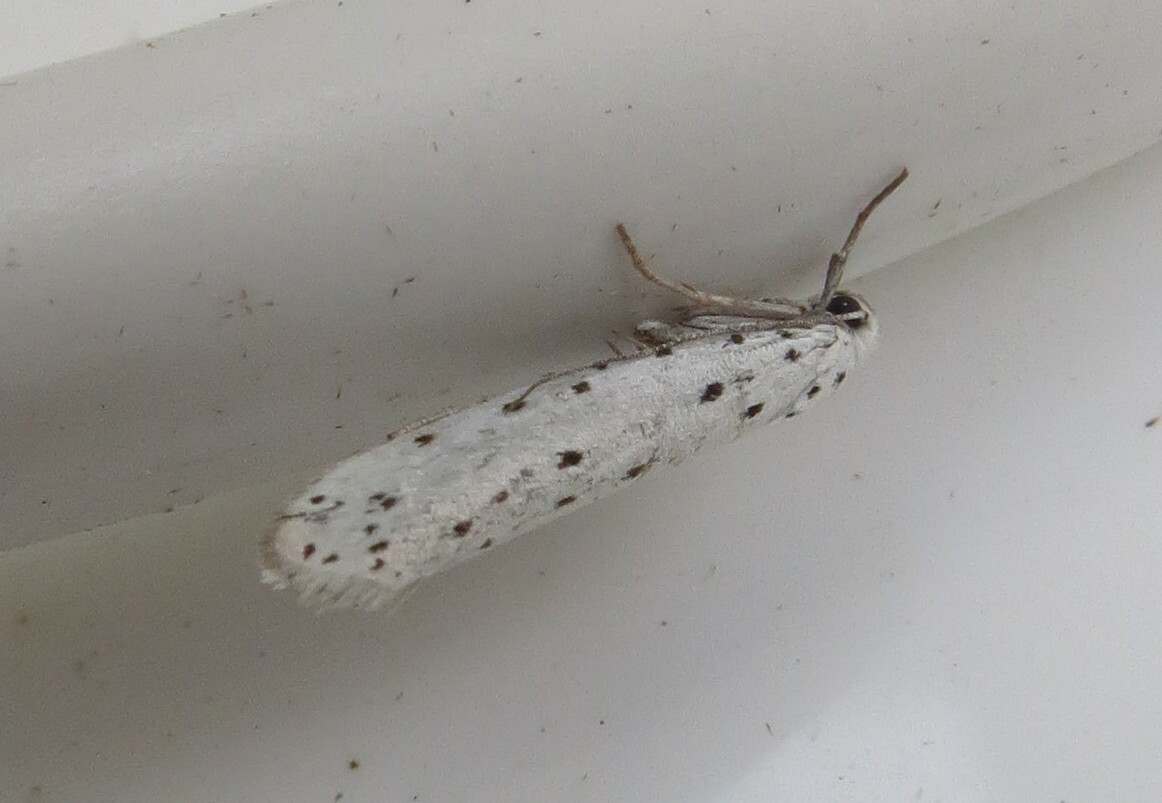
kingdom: Animalia
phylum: Arthropoda
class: Insecta
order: Lepidoptera
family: Yponomeutidae
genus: Yponomeuta
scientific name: Yponomeuta
